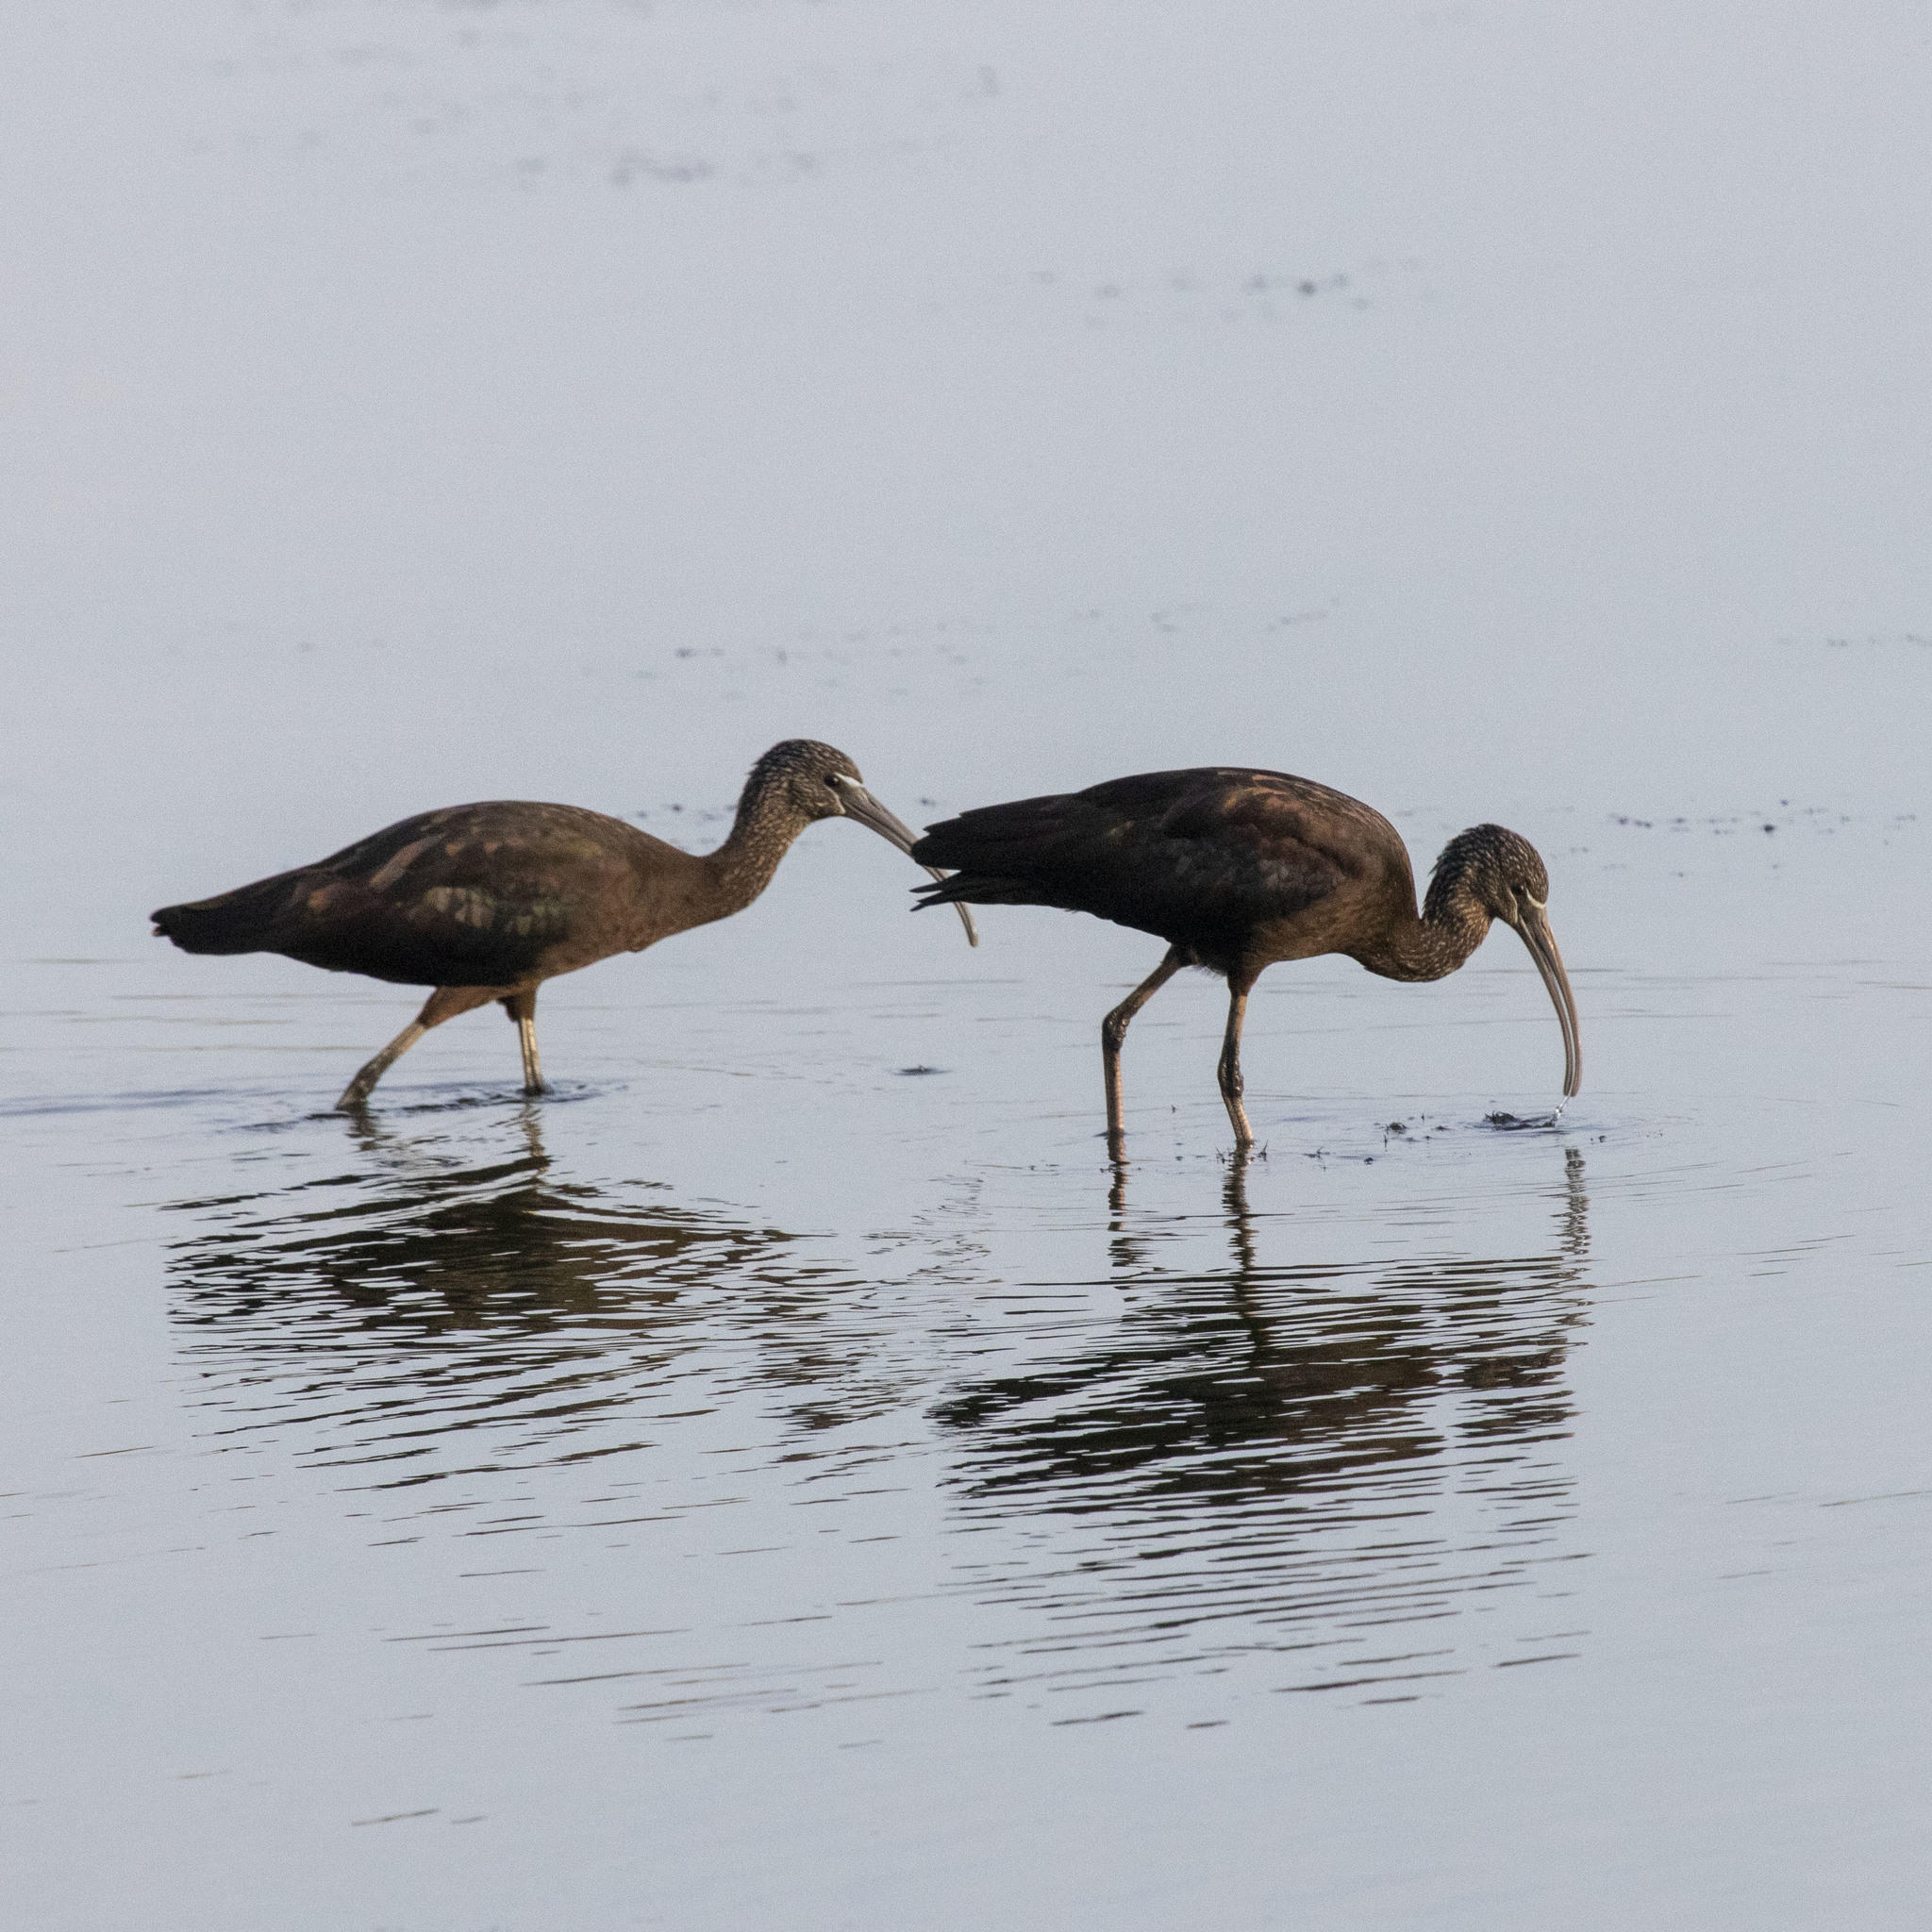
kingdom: Animalia
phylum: Chordata
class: Aves
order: Pelecaniformes
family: Threskiornithidae
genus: Plegadis
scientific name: Plegadis falcinellus
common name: Glossy ibis
